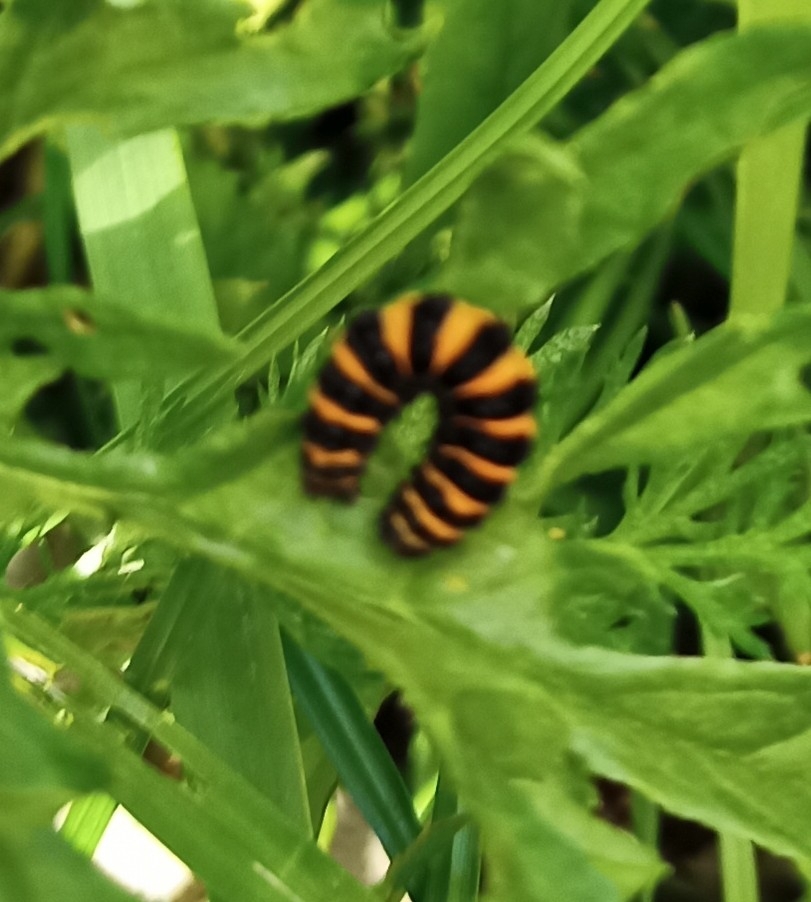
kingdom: Animalia
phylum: Arthropoda
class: Insecta
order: Lepidoptera
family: Erebidae
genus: Tyria
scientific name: Tyria jacobaeae
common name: Cinnabar
